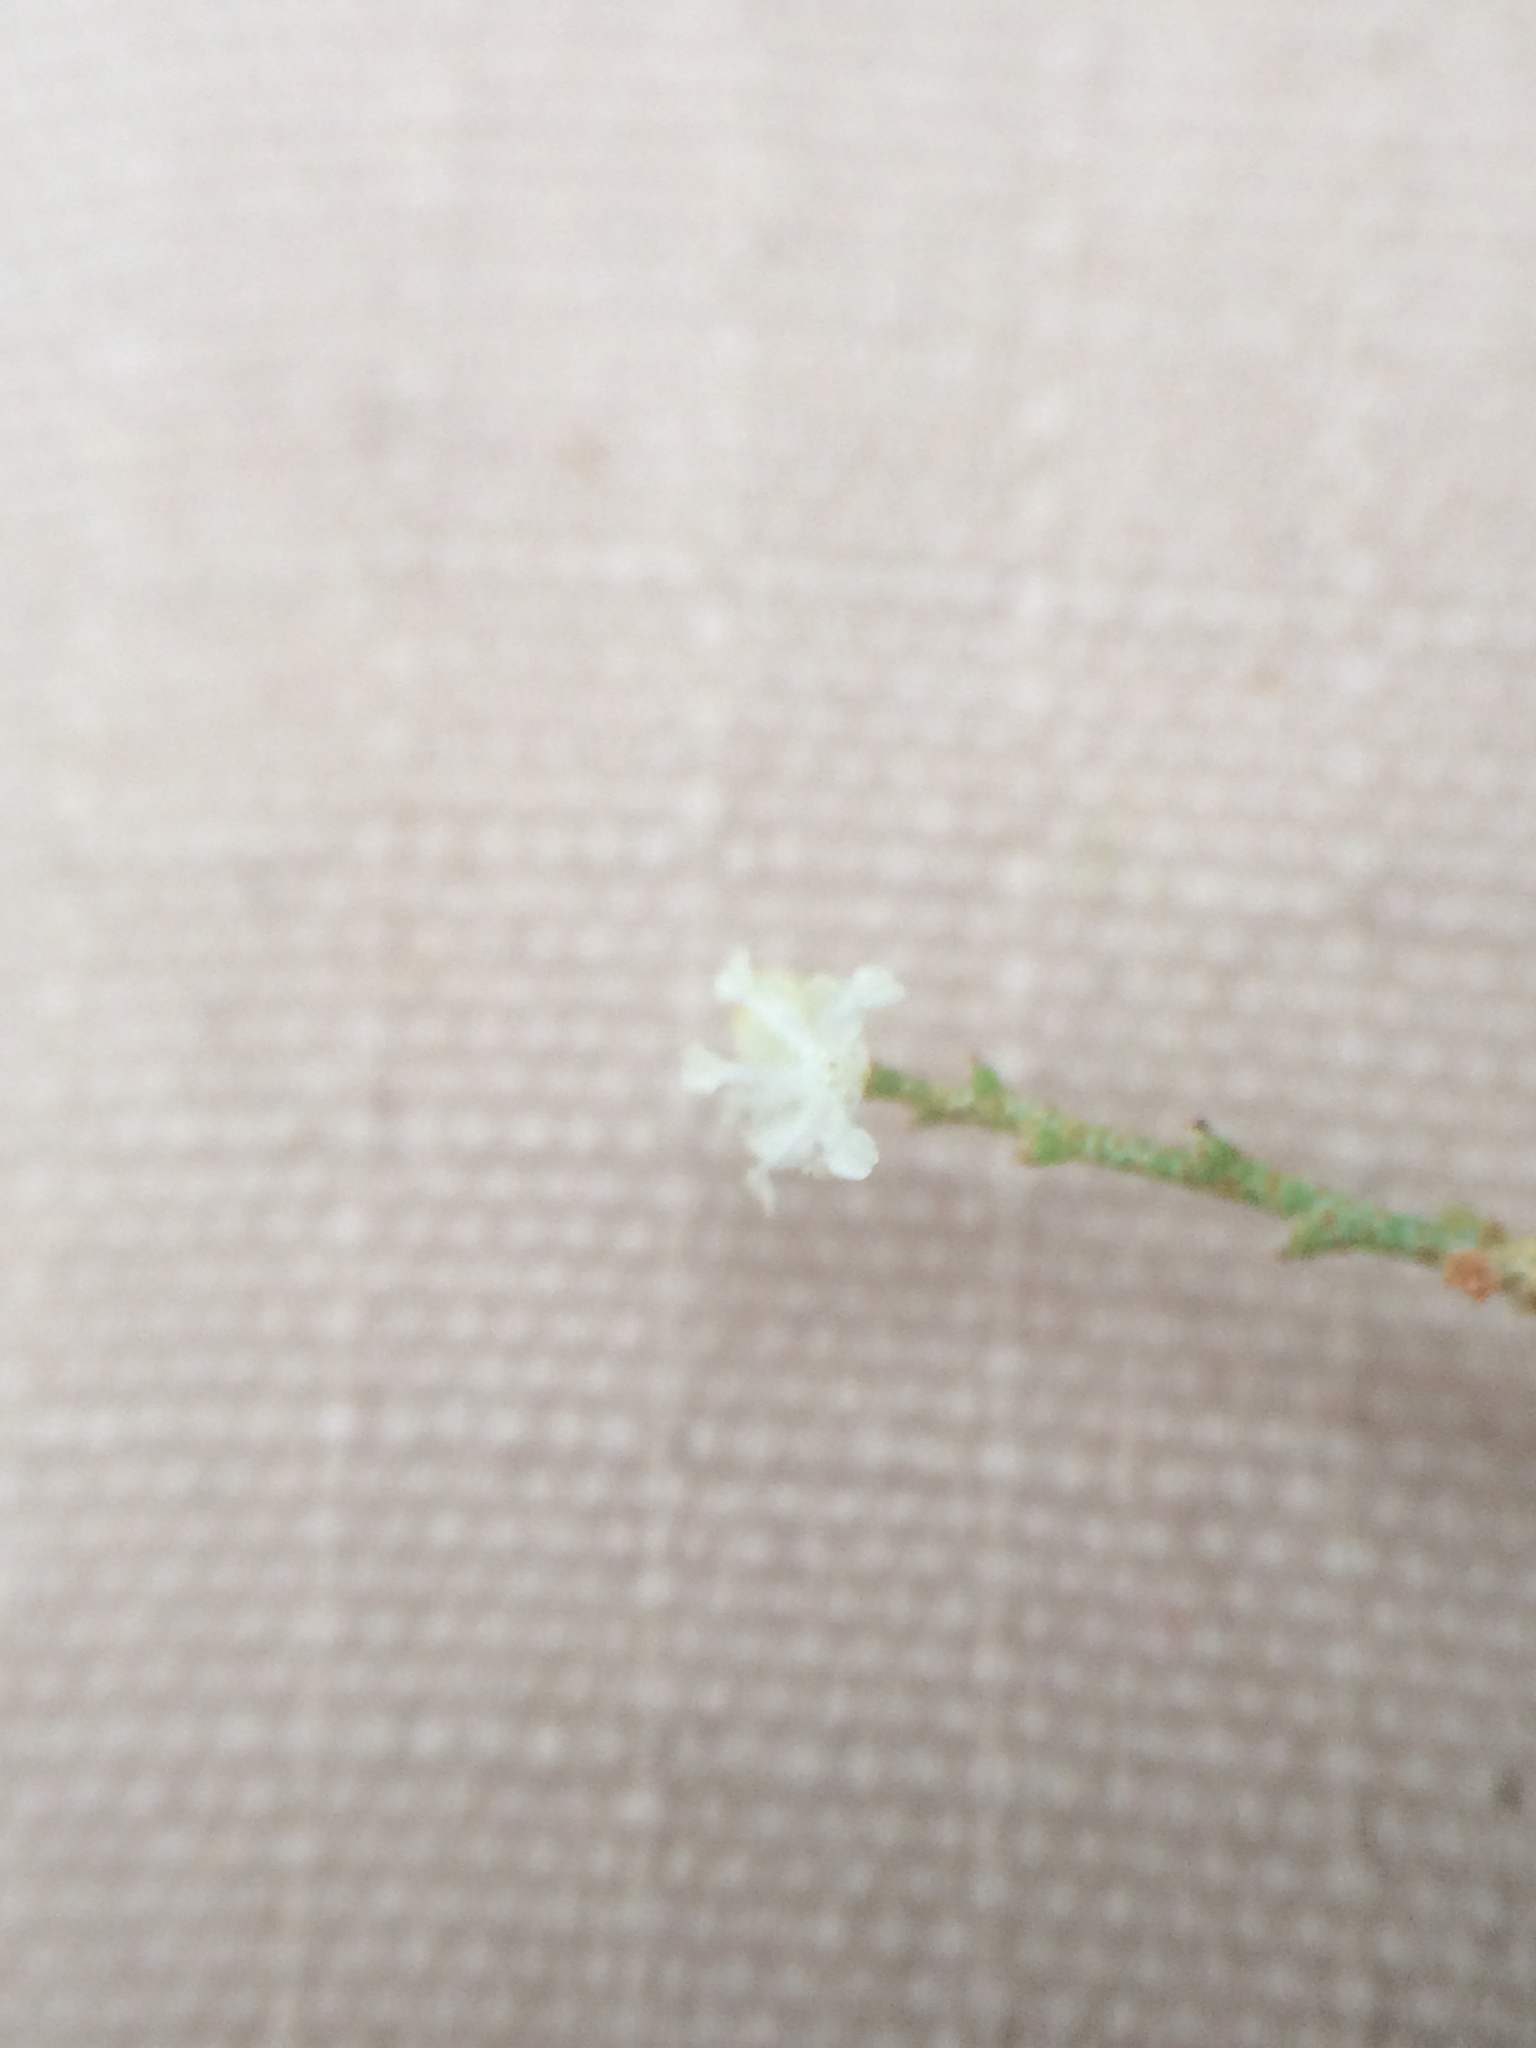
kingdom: Plantae
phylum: Tracheophyta
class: Magnoliopsida
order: Malpighiales
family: Euphorbiaceae
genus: Croton
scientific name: Croton michauxii
